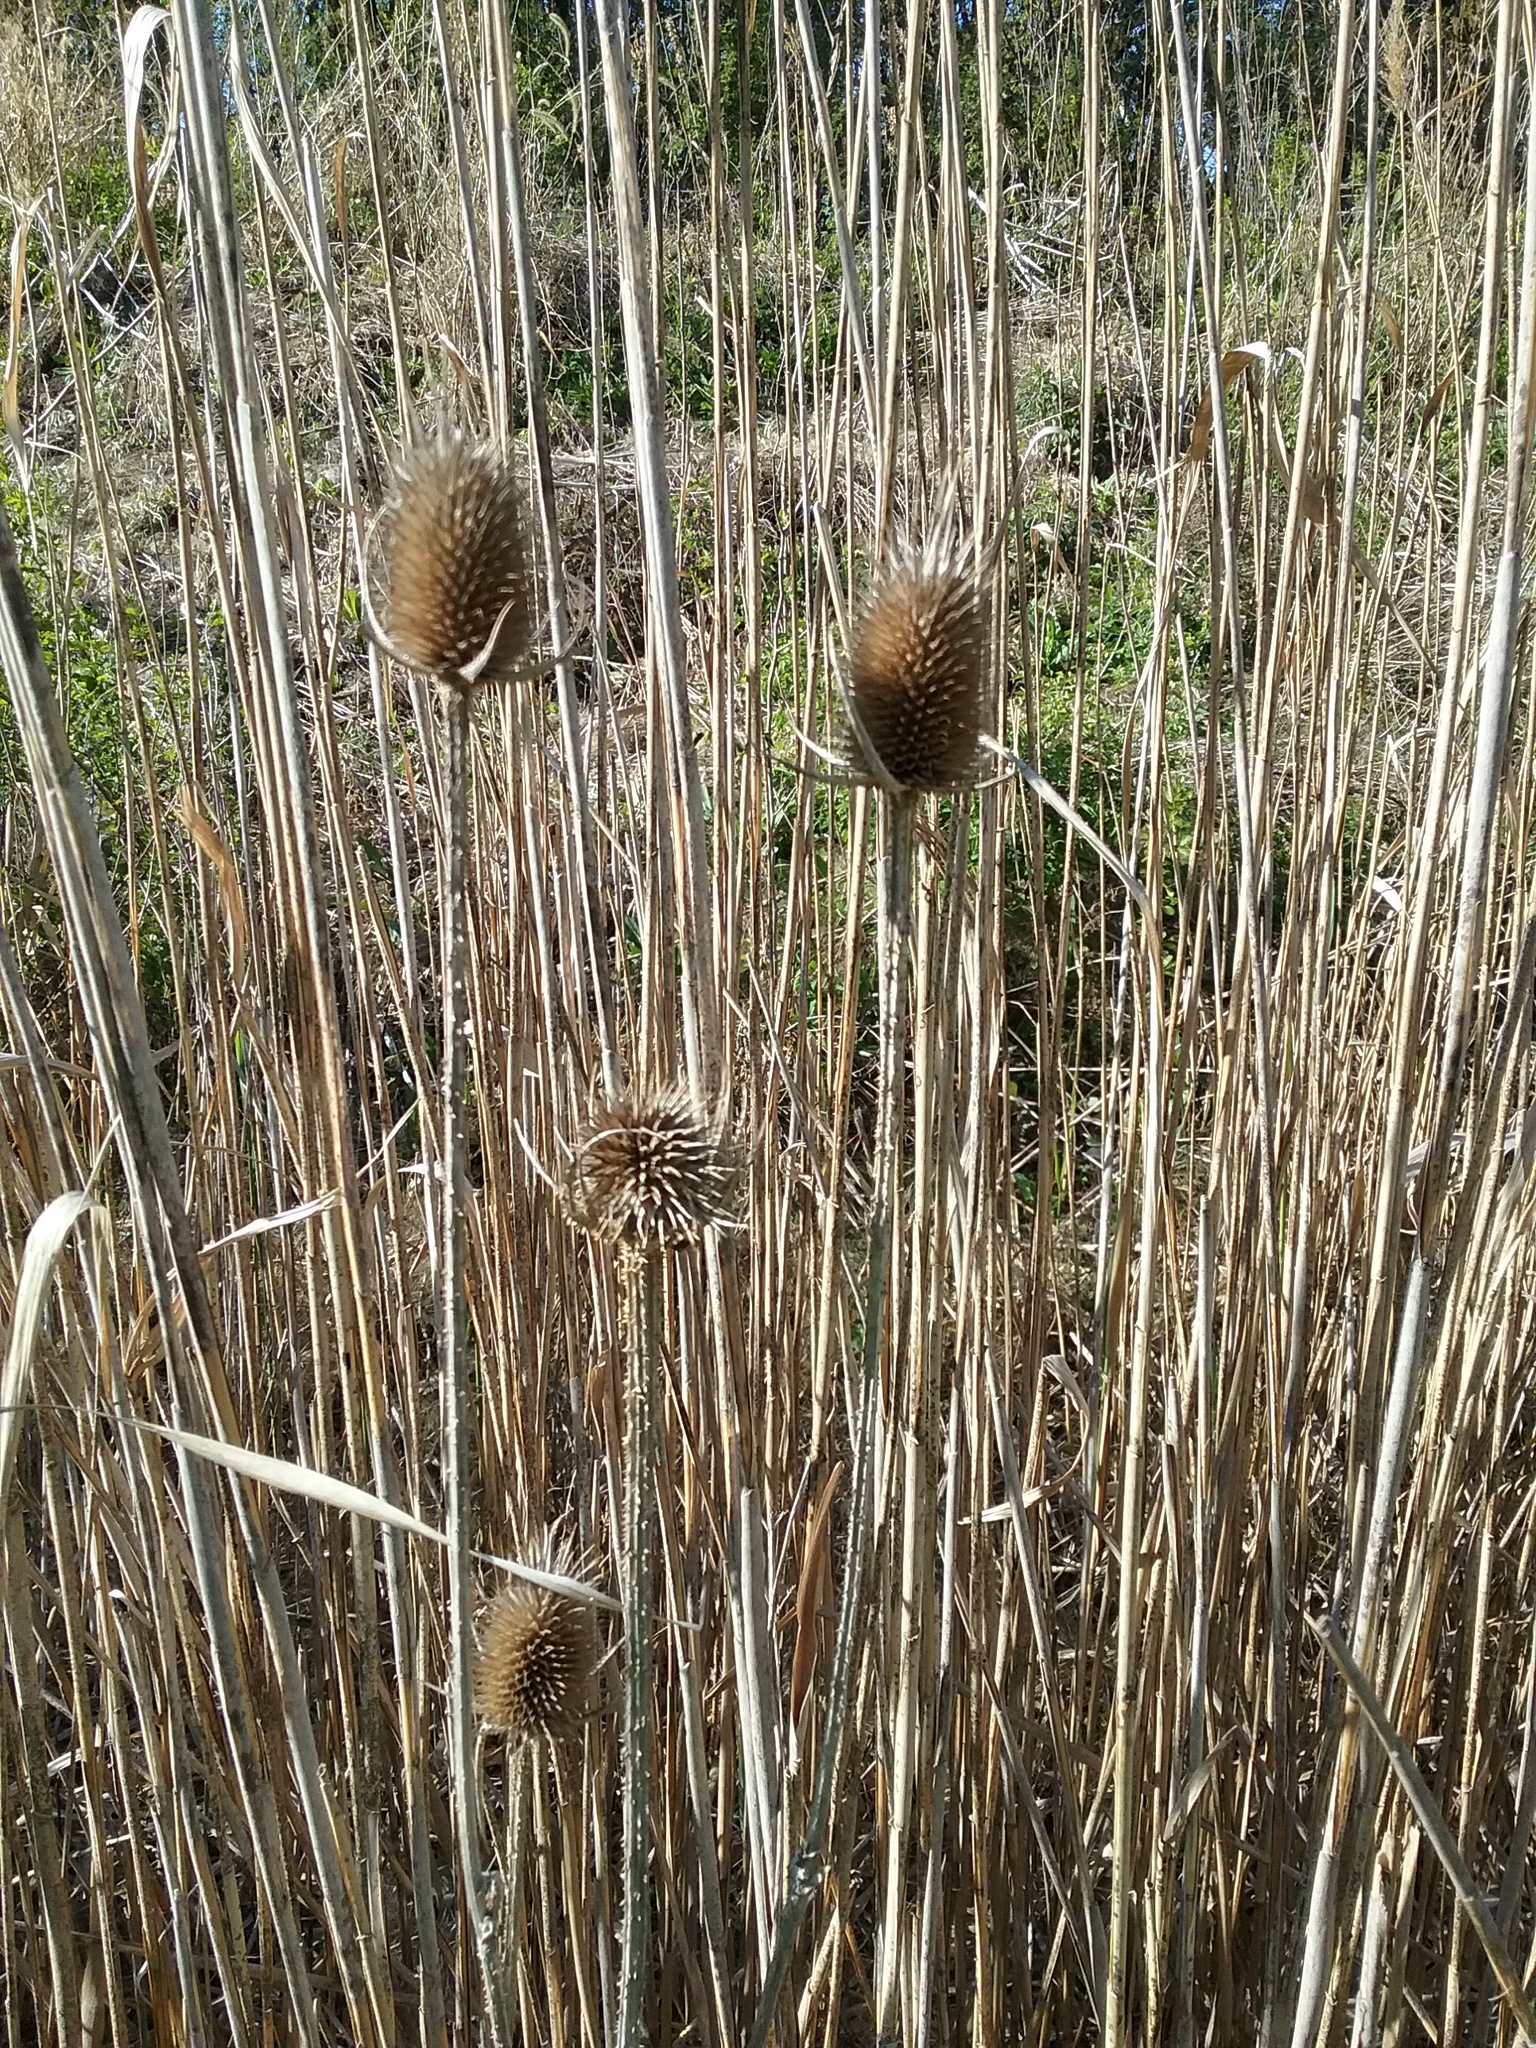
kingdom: Plantae
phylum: Tracheophyta
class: Magnoliopsida
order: Dipsacales
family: Caprifoliaceae
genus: Dipsacus
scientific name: Dipsacus laciniatus
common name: Cut-leaved teasel
